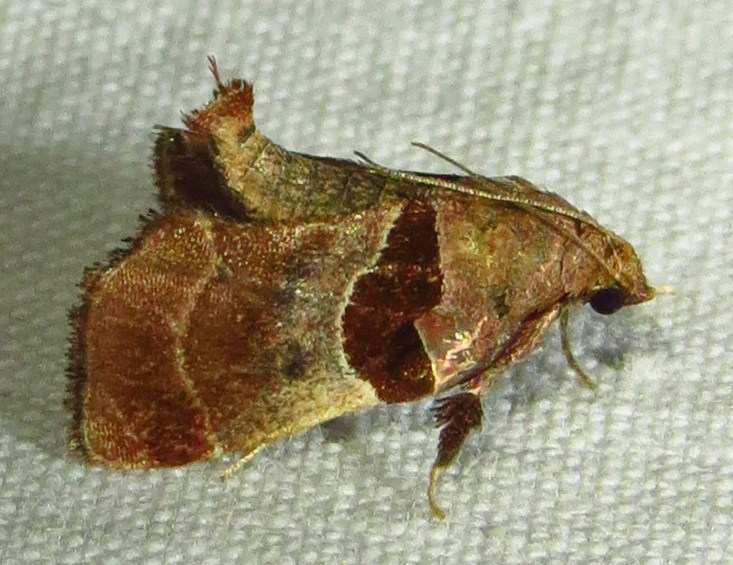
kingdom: Animalia
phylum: Arthropoda
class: Insecta
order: Lepidoptera
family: Pyralidae
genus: Tosale
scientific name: Tosale oviplagalis
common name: Dimorphic tosale moth
